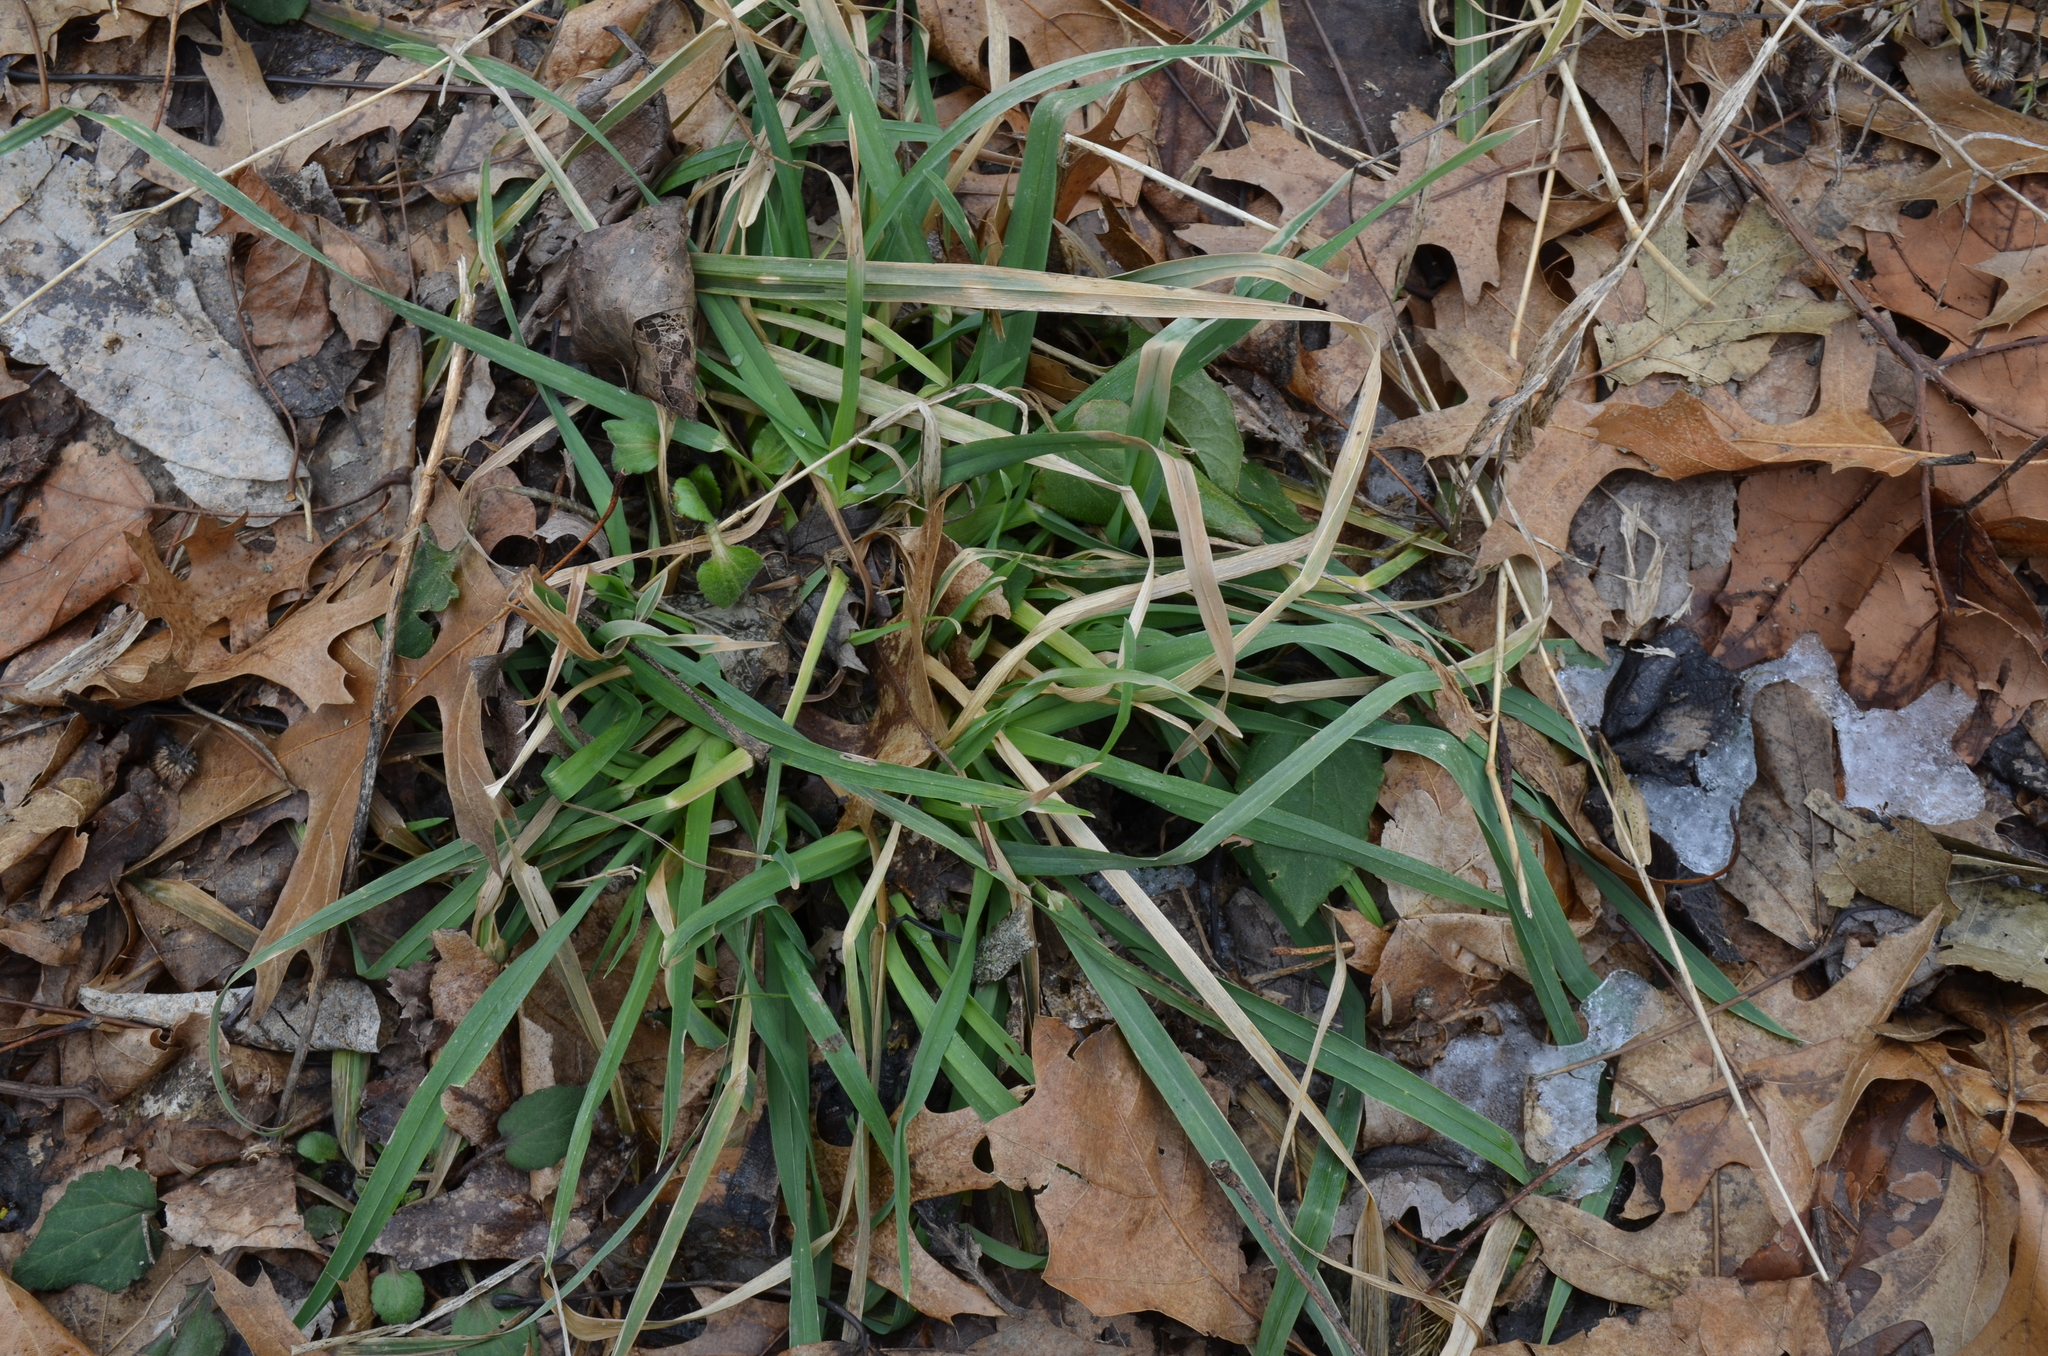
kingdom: Plantae
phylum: Tracheophyta
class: Liliopsida
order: Poales
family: Poaceae
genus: Dactylis
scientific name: Dactylis glomerata
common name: Orchardgrass
